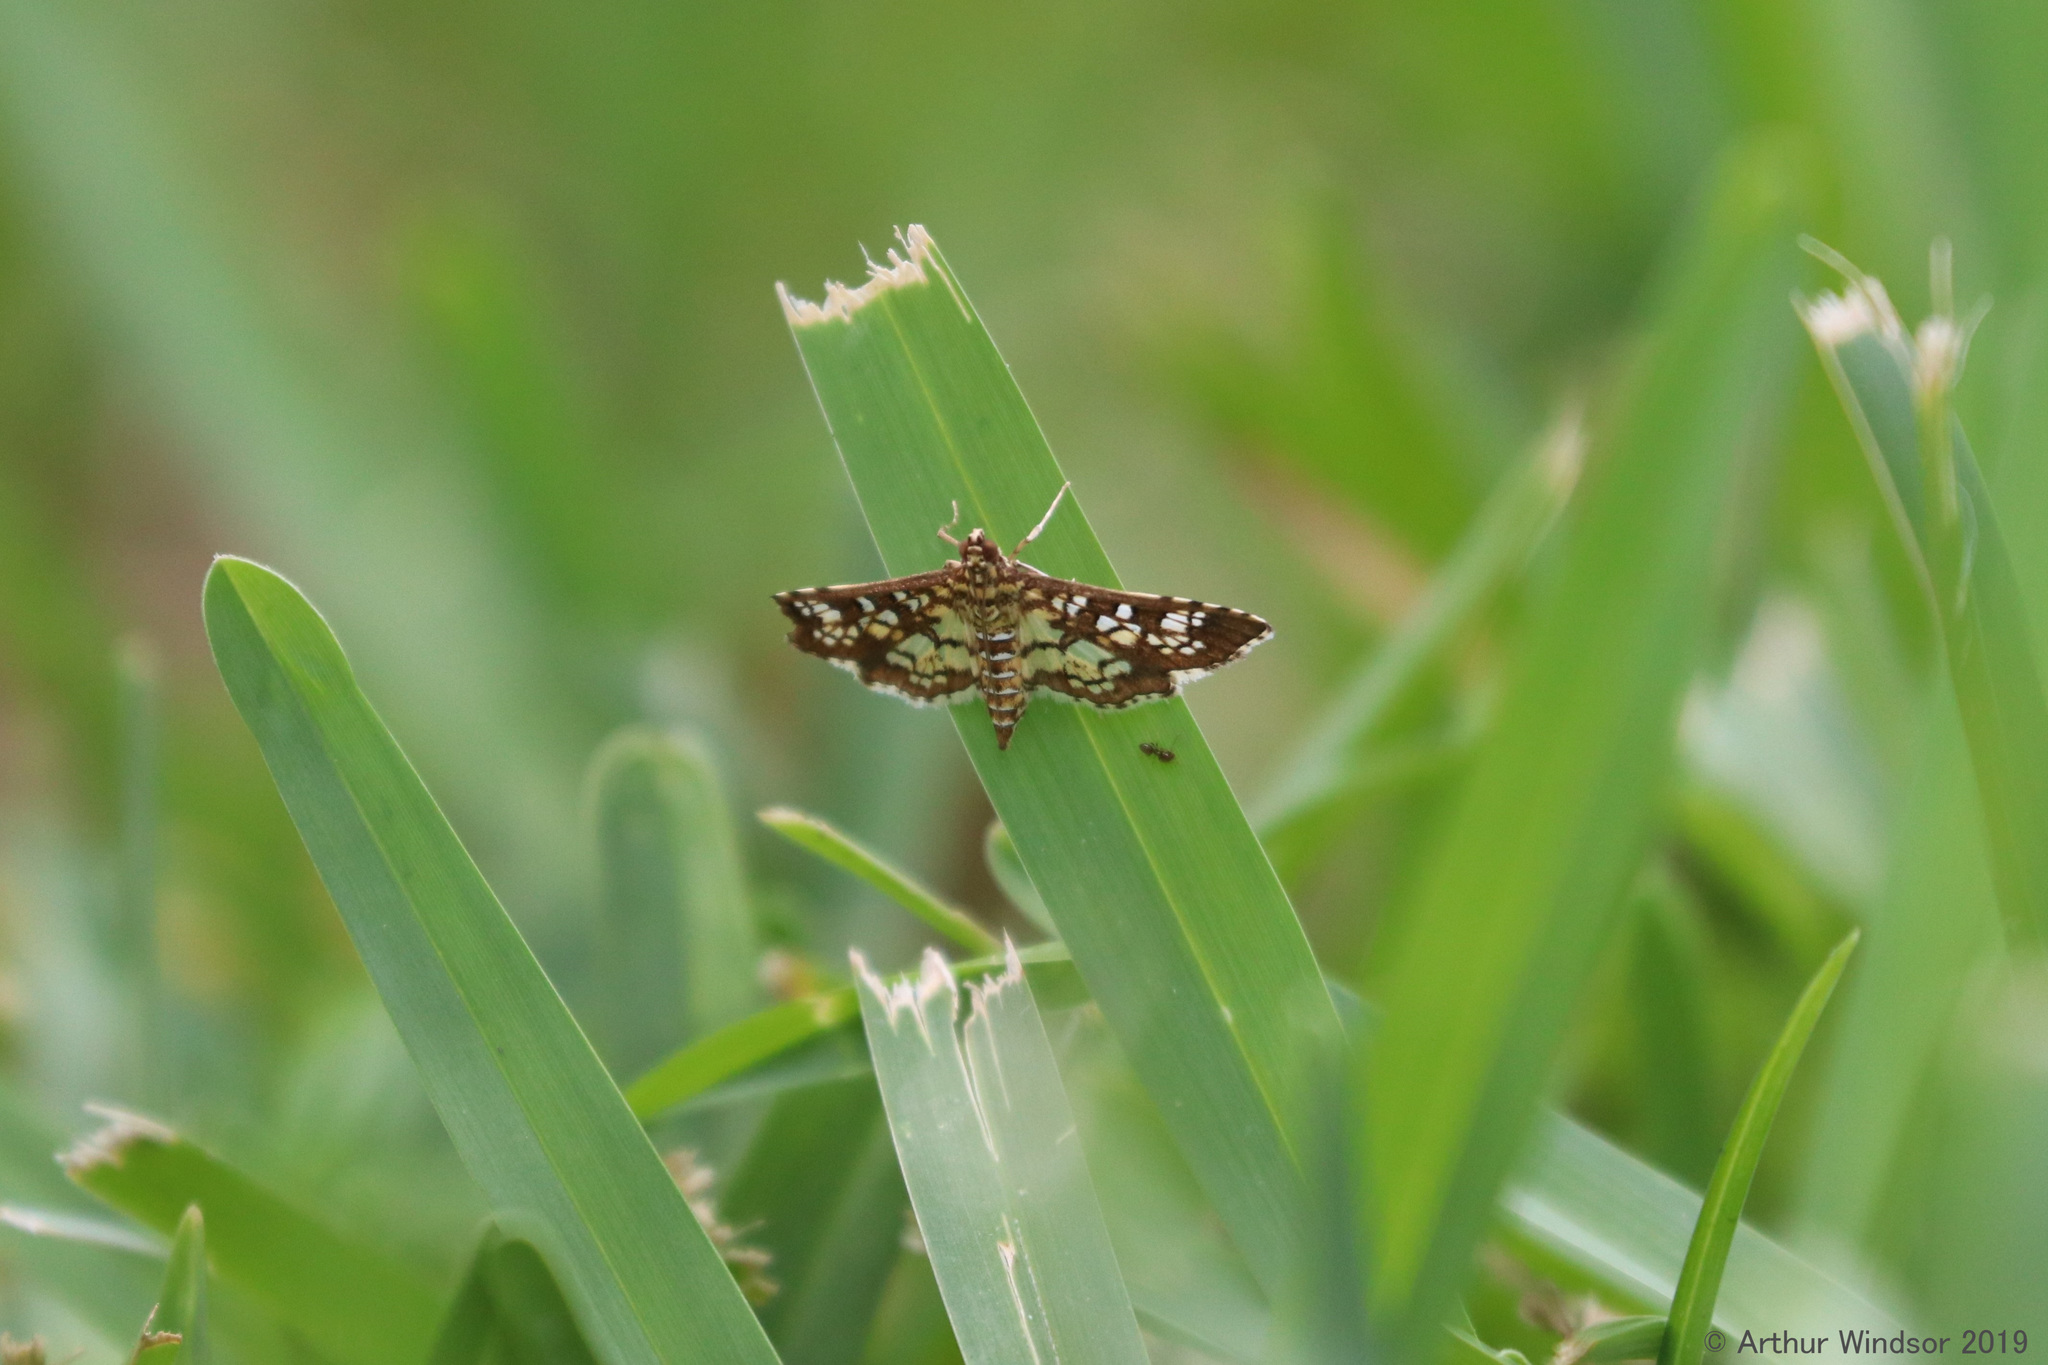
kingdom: Animalia
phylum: Arthropoda
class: Insecta
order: Lepidoptera
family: Crambidae
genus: Samea
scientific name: Samea ecclesialis
